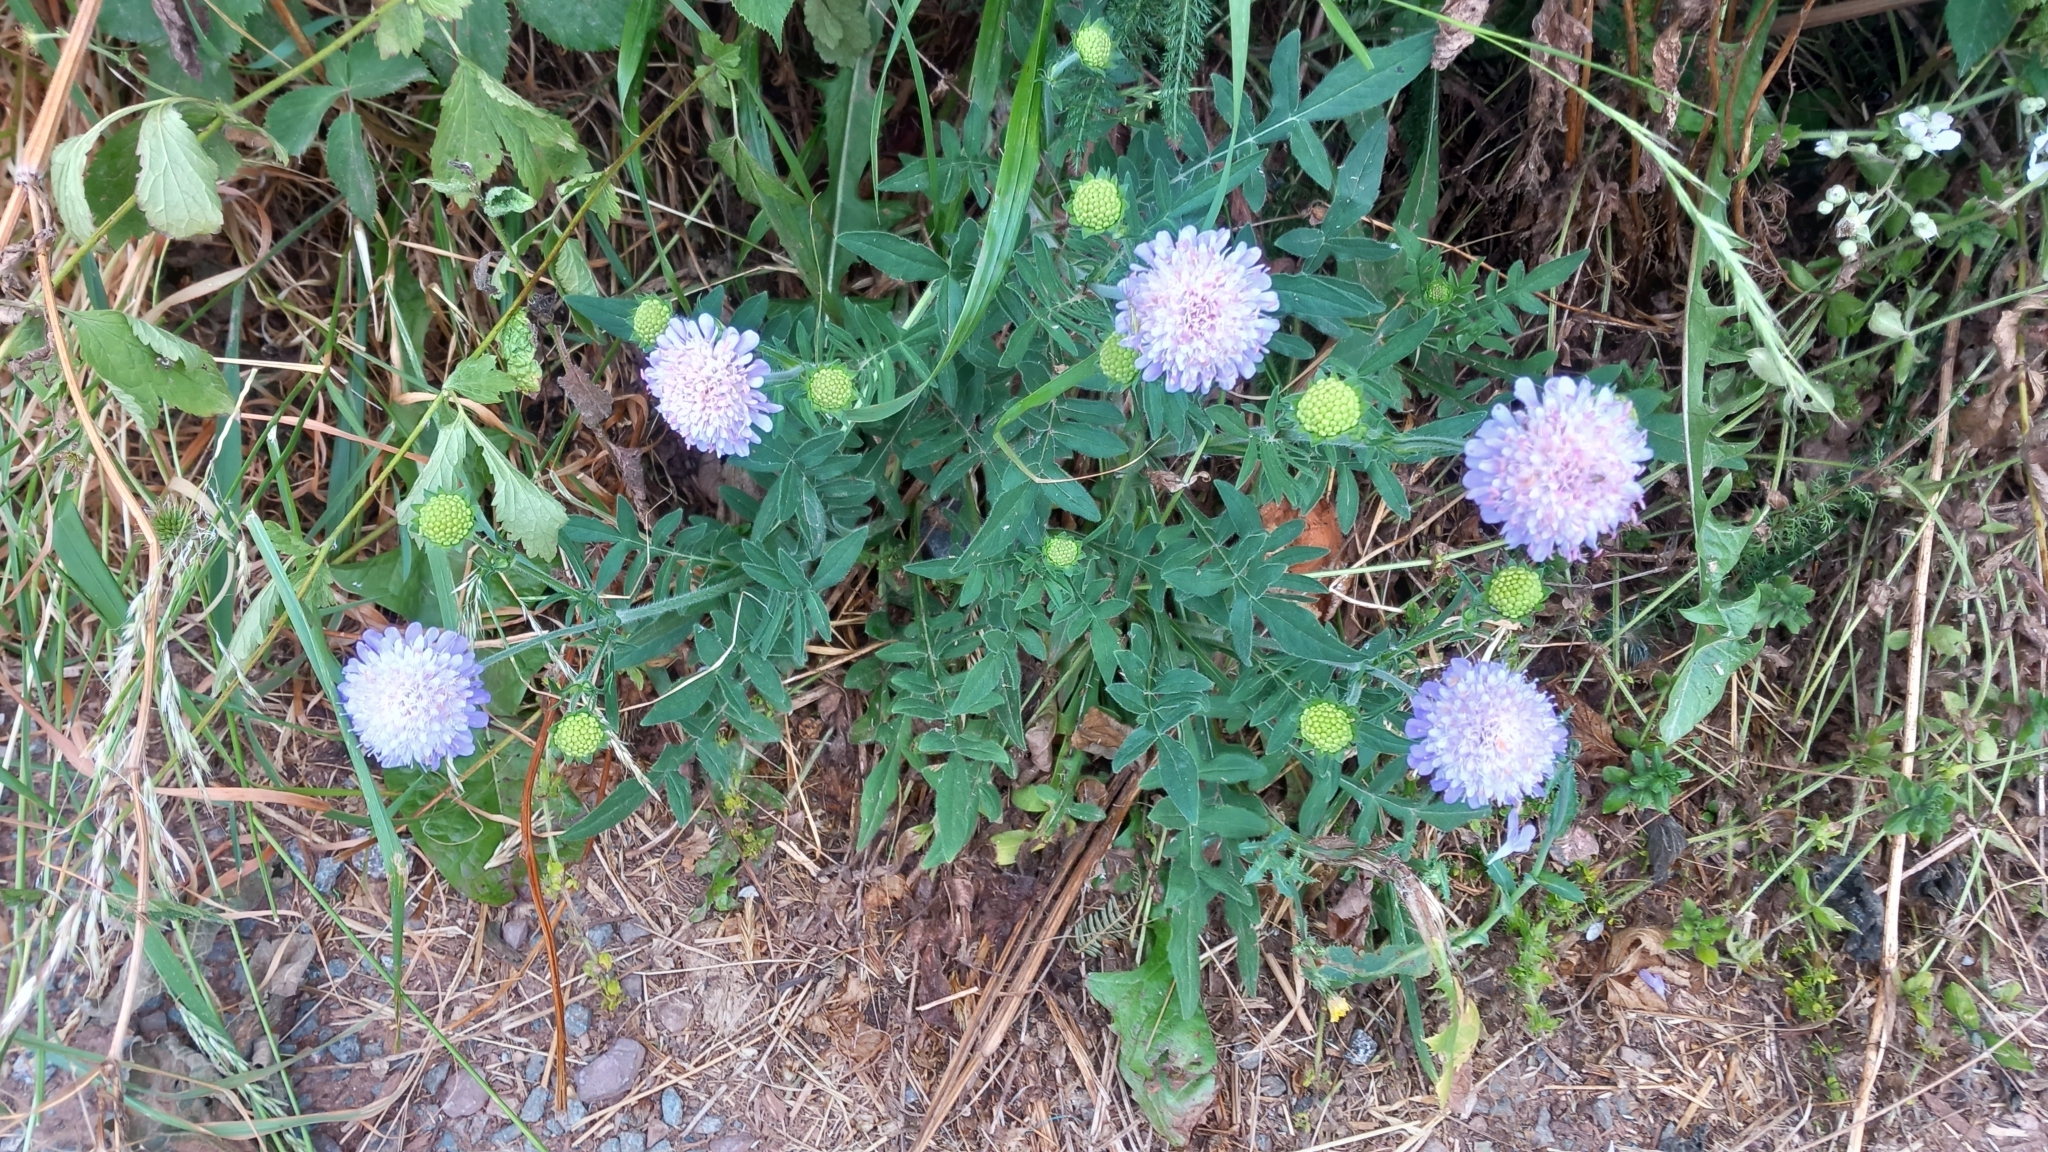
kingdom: Plantae
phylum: Tracheophyta
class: Magnoliopsida
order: Dipsacales
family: Caprifoliaceae
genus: Knautia
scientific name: Knautia arvensis
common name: Field scabiosa
